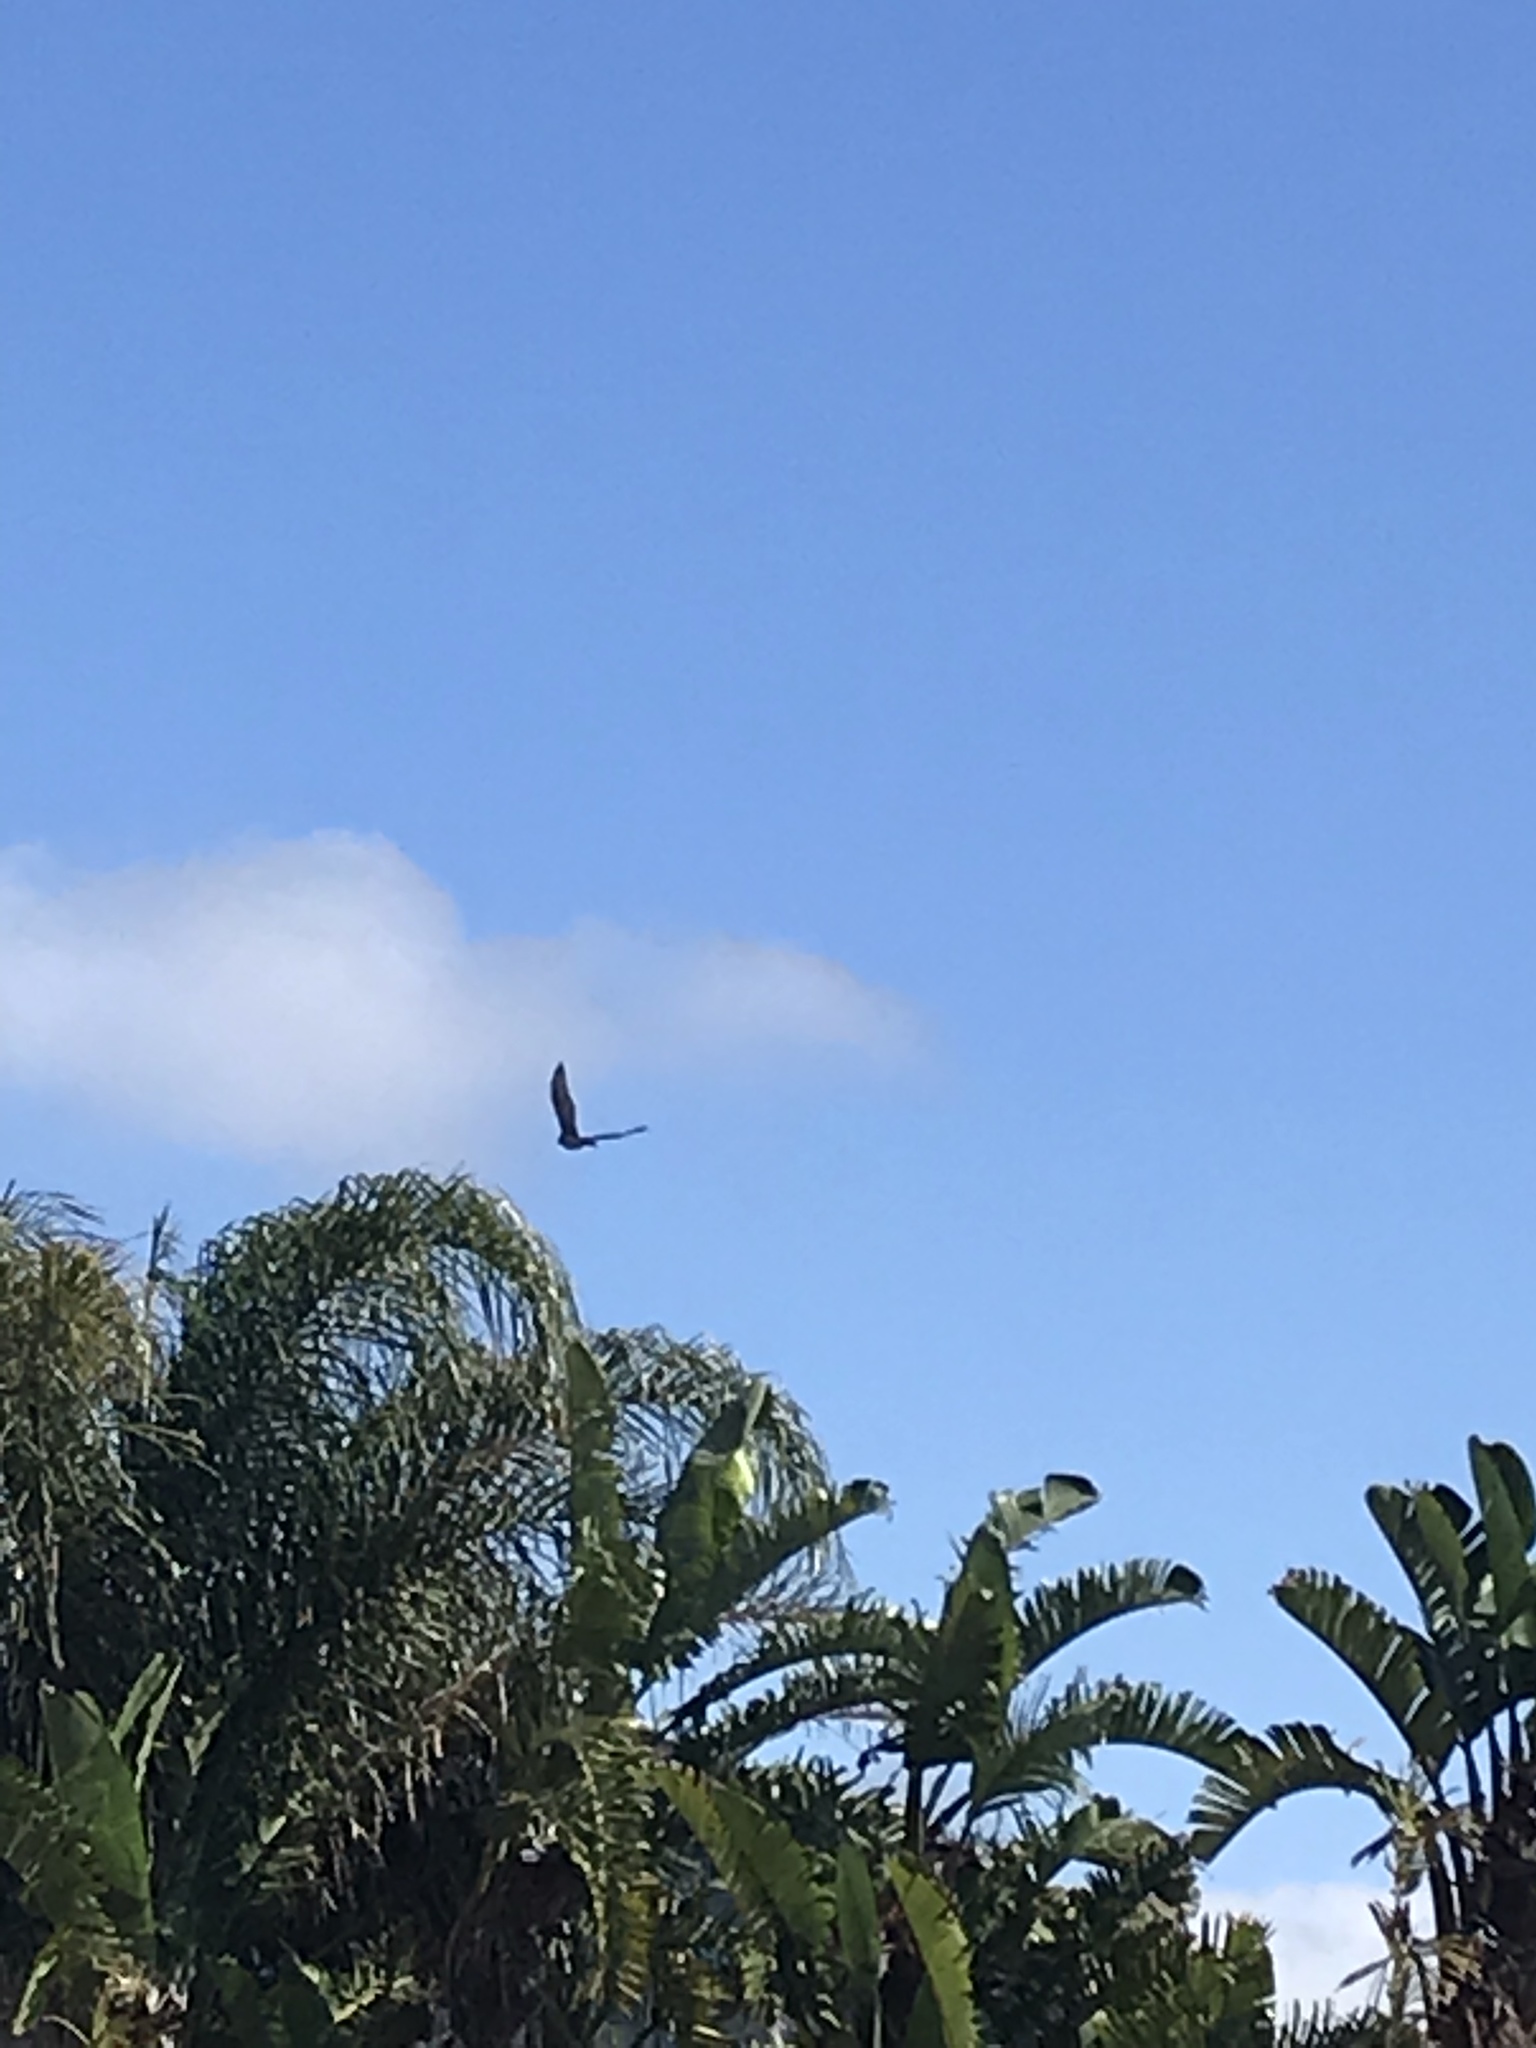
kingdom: Animalia
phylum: Chordata
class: Aves
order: Accipitriformes
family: Accipitridae
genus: Accipiter
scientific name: Accipiter cooperii
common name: Cooper's hawk
